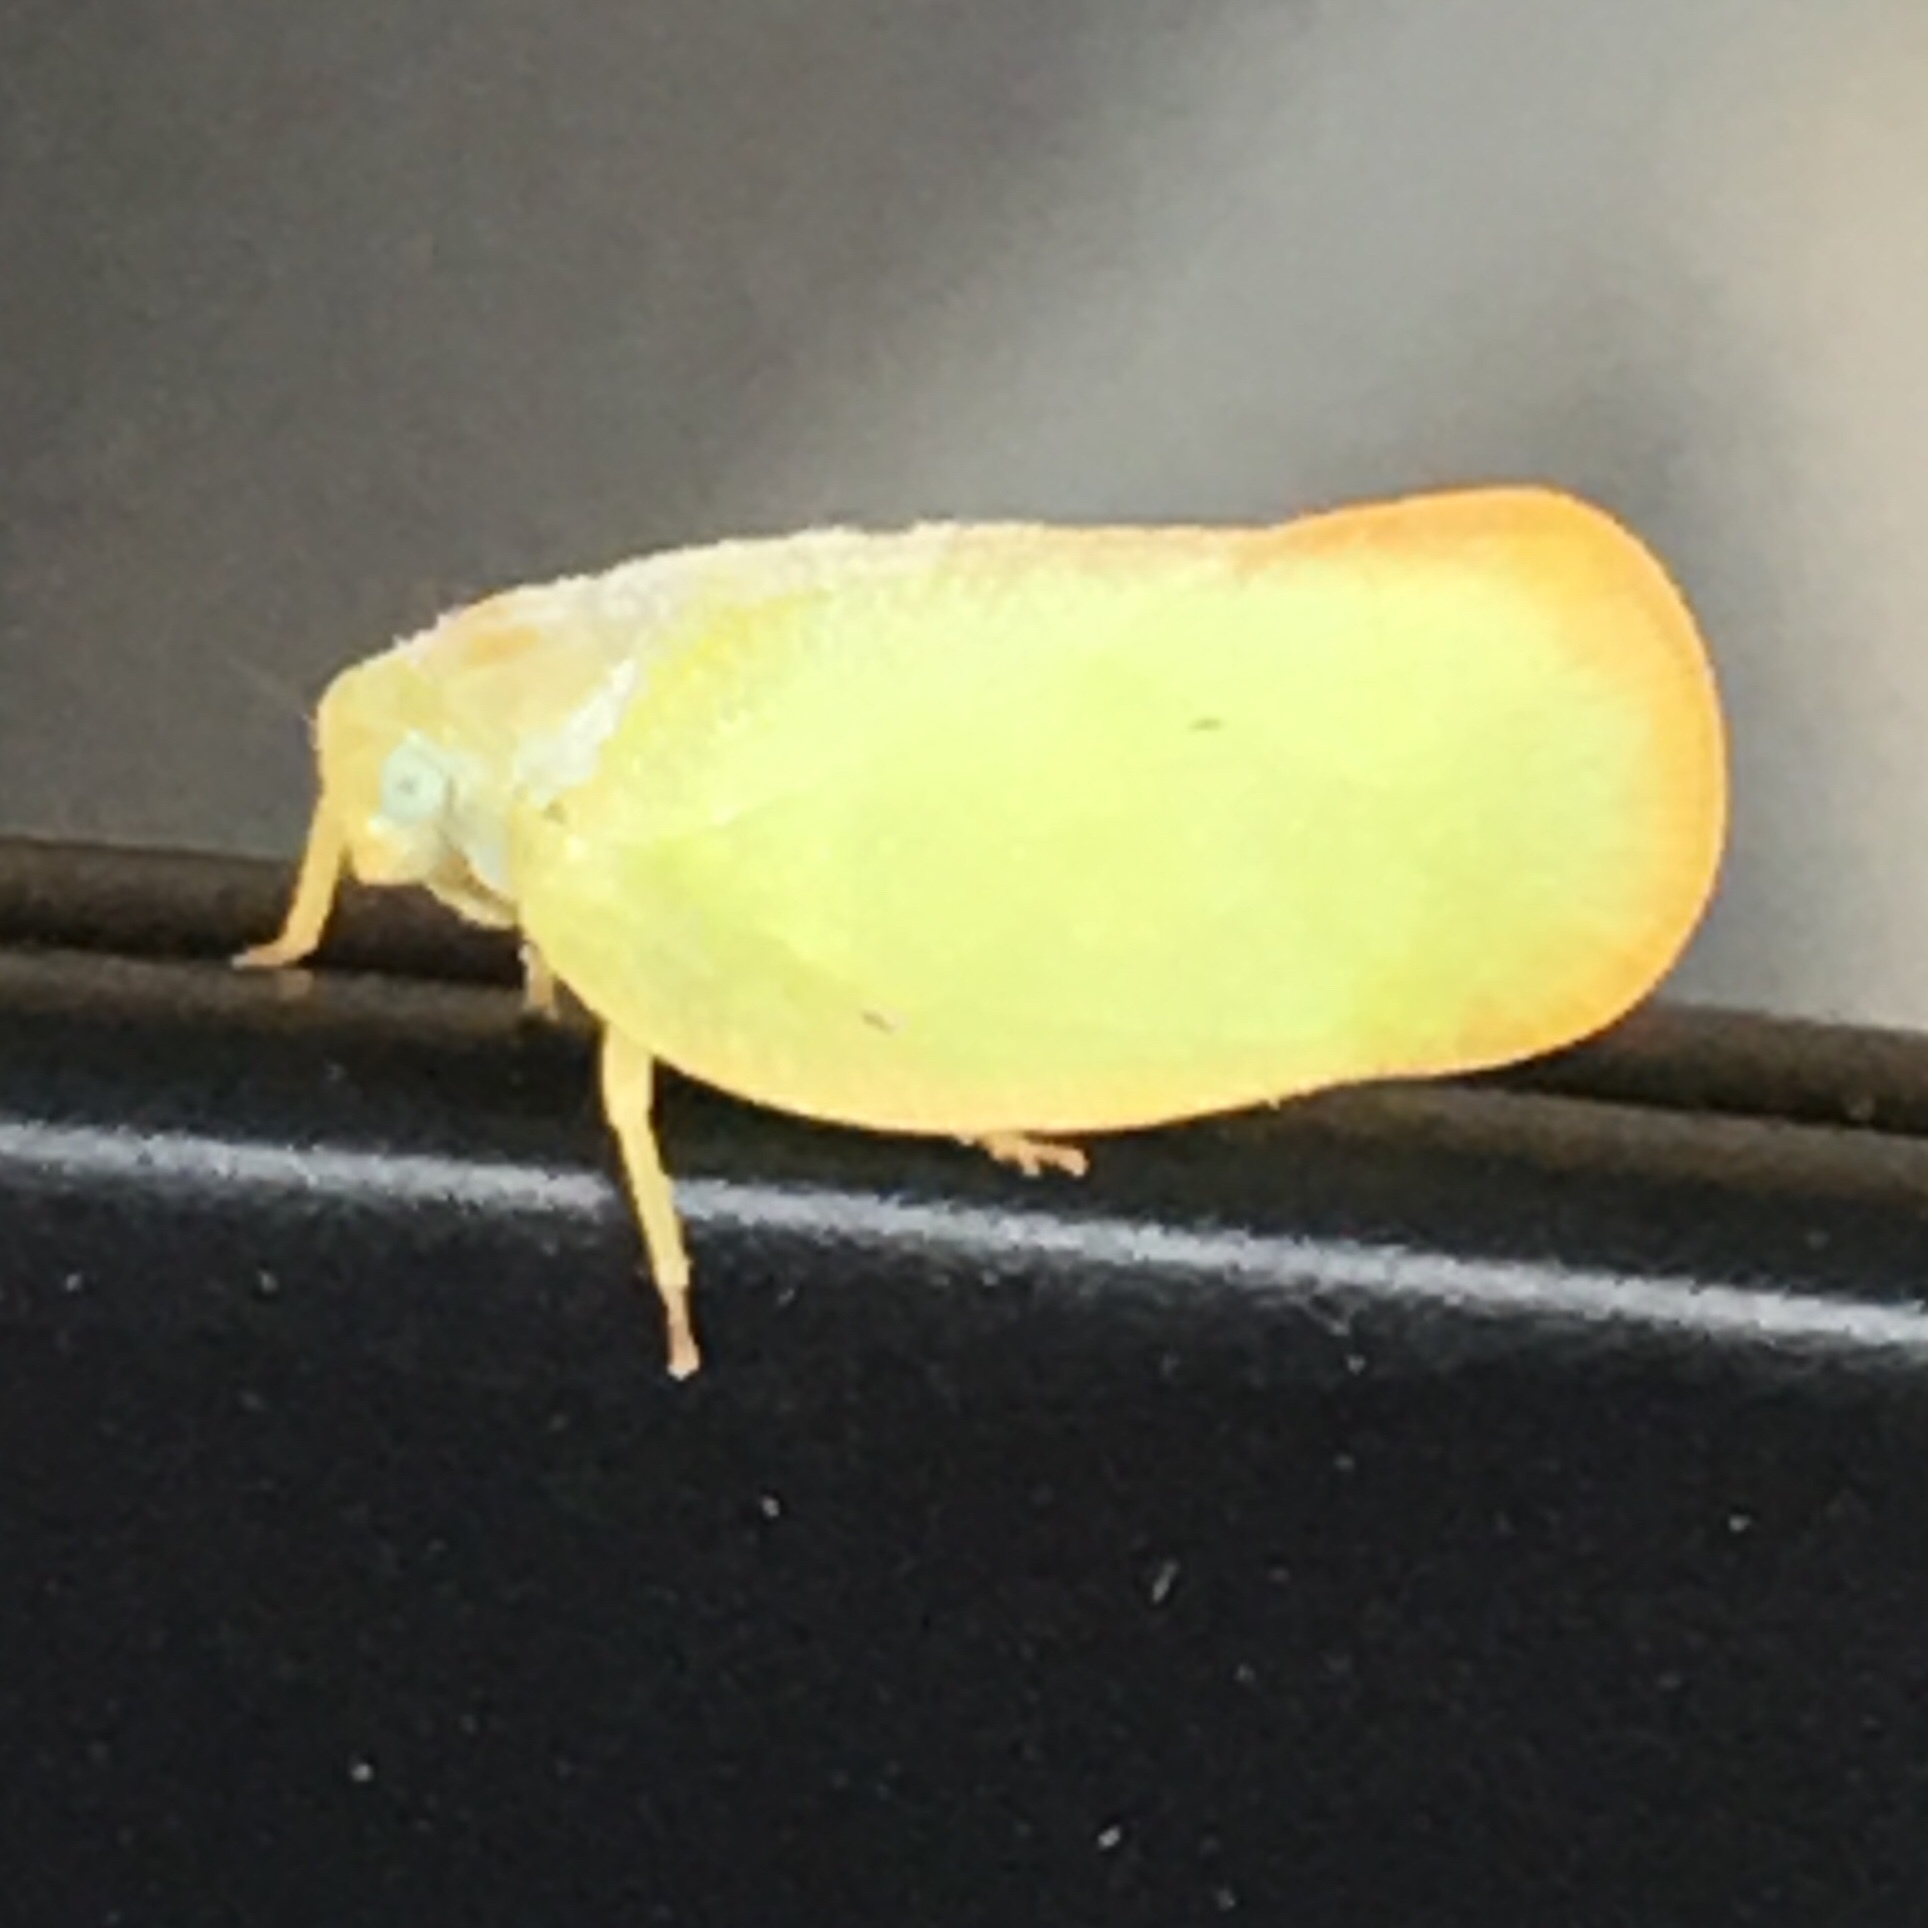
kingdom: Animalia
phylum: Arthropoda
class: Insecta
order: Hemiptera
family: Flatidae
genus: Ormenoides
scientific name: Ormenoides venusta
